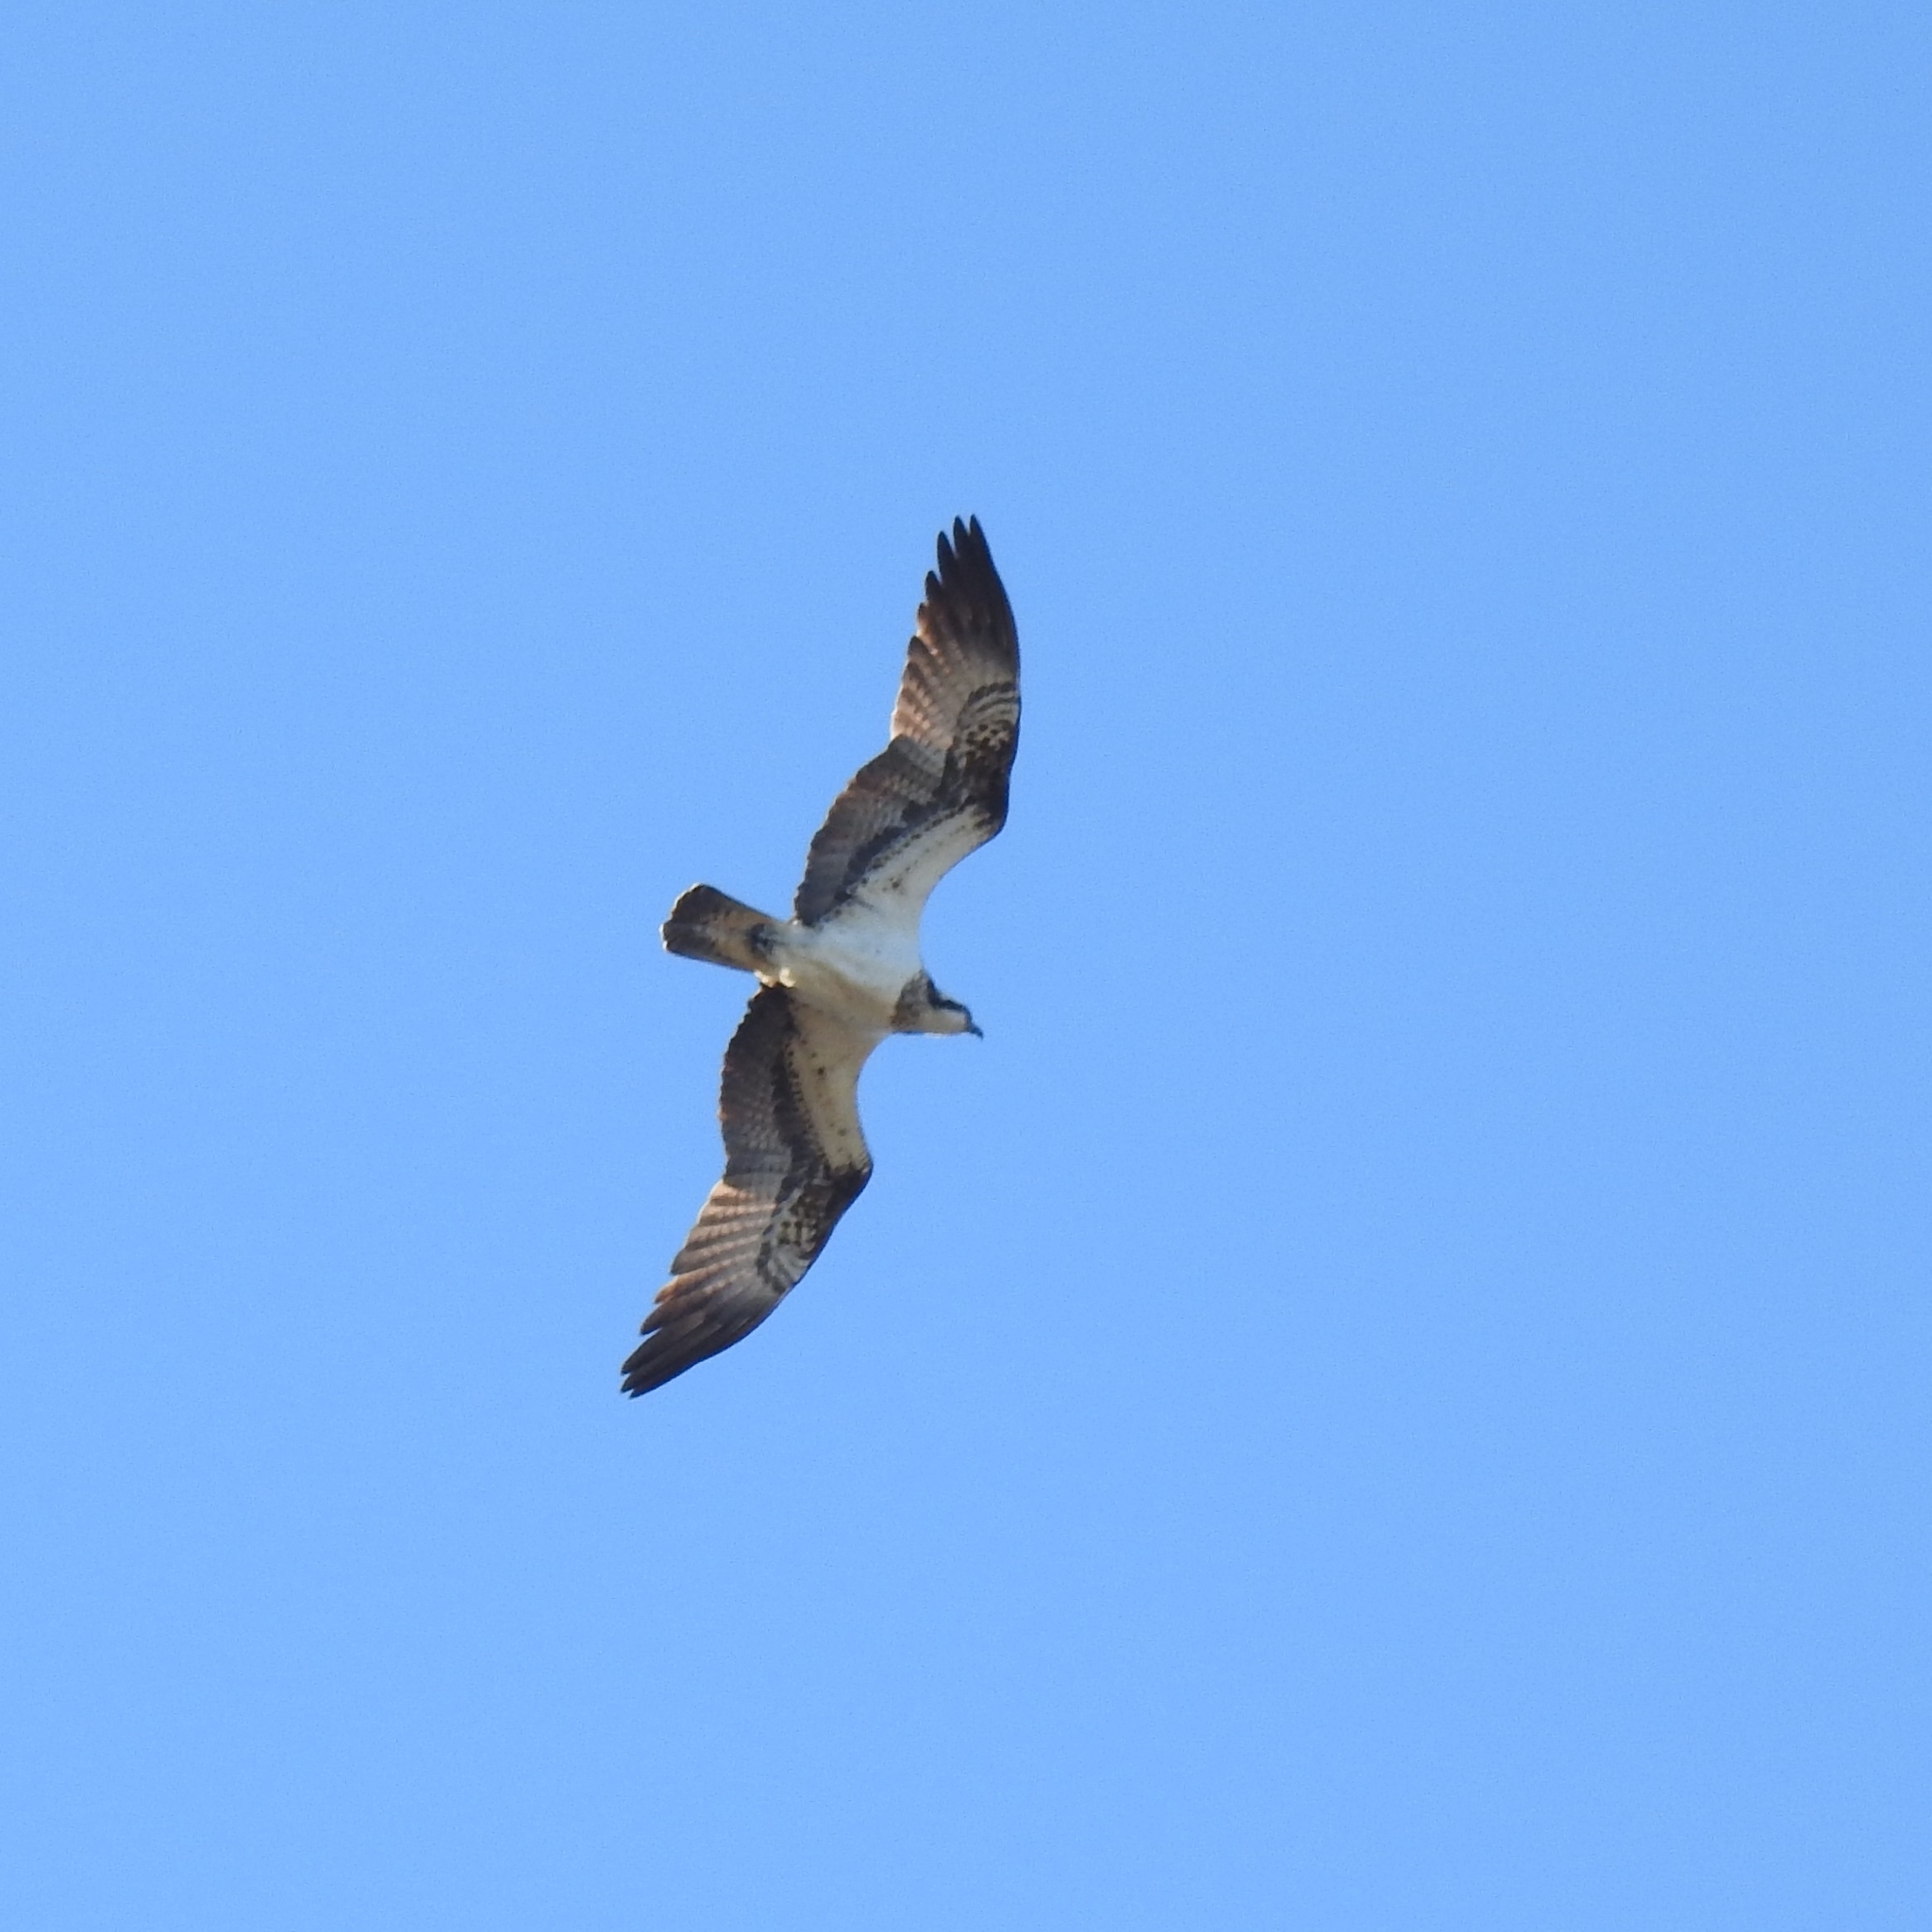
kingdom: Animalia
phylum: Chordata
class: Aves
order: Accipitriformes
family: Pandionidae
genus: Pandion
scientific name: Pandion haliaetus
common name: Osprey
